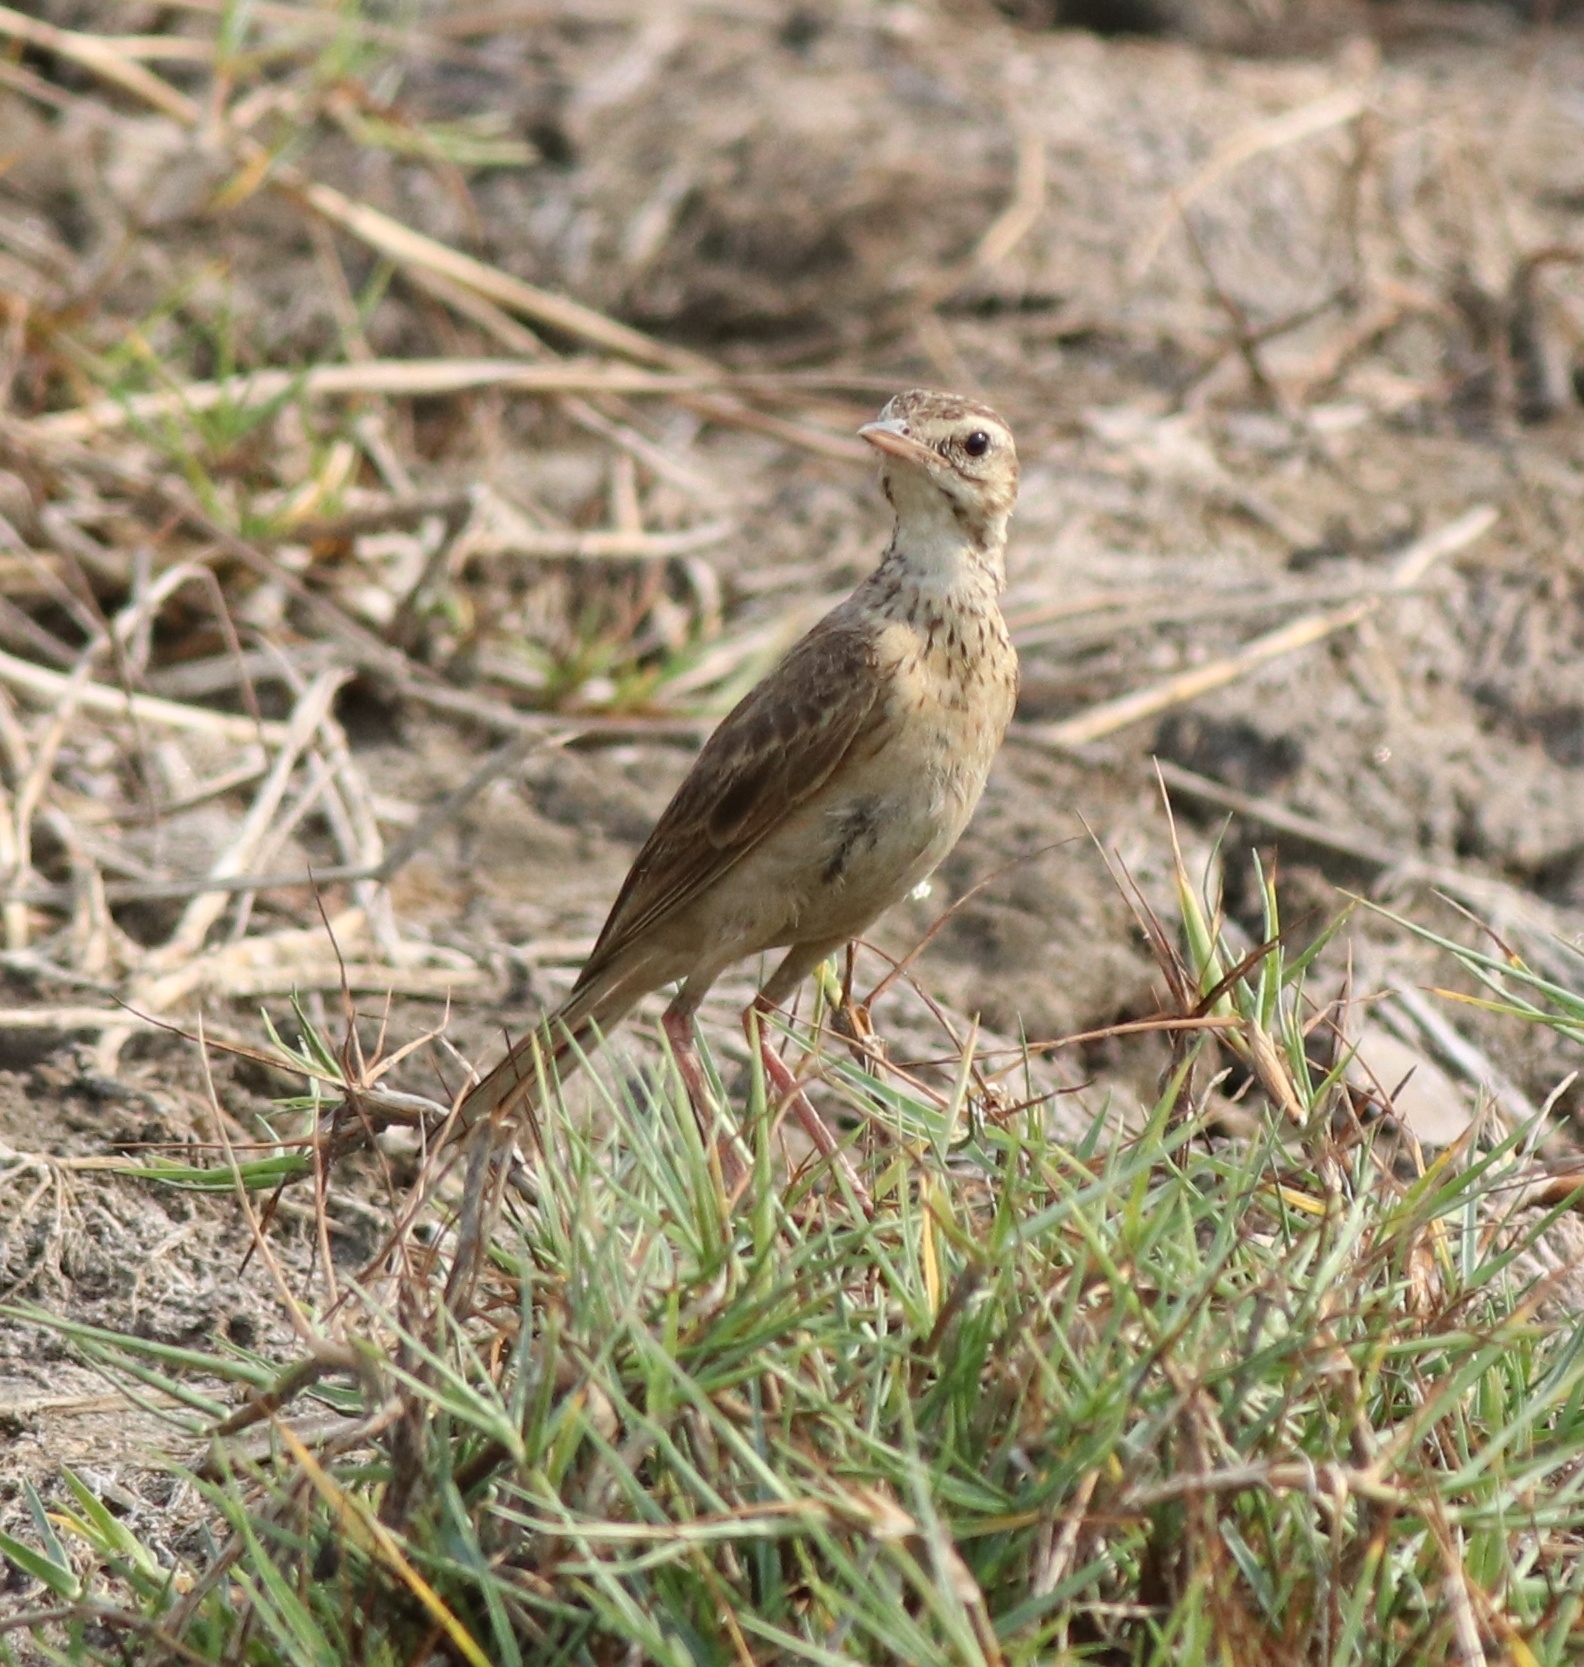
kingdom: Animalia
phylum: Chordata
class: Aves
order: Passeriformes
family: Motacillidae
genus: Anthus
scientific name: Anthus rufulus
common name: Paddyfield pipit
